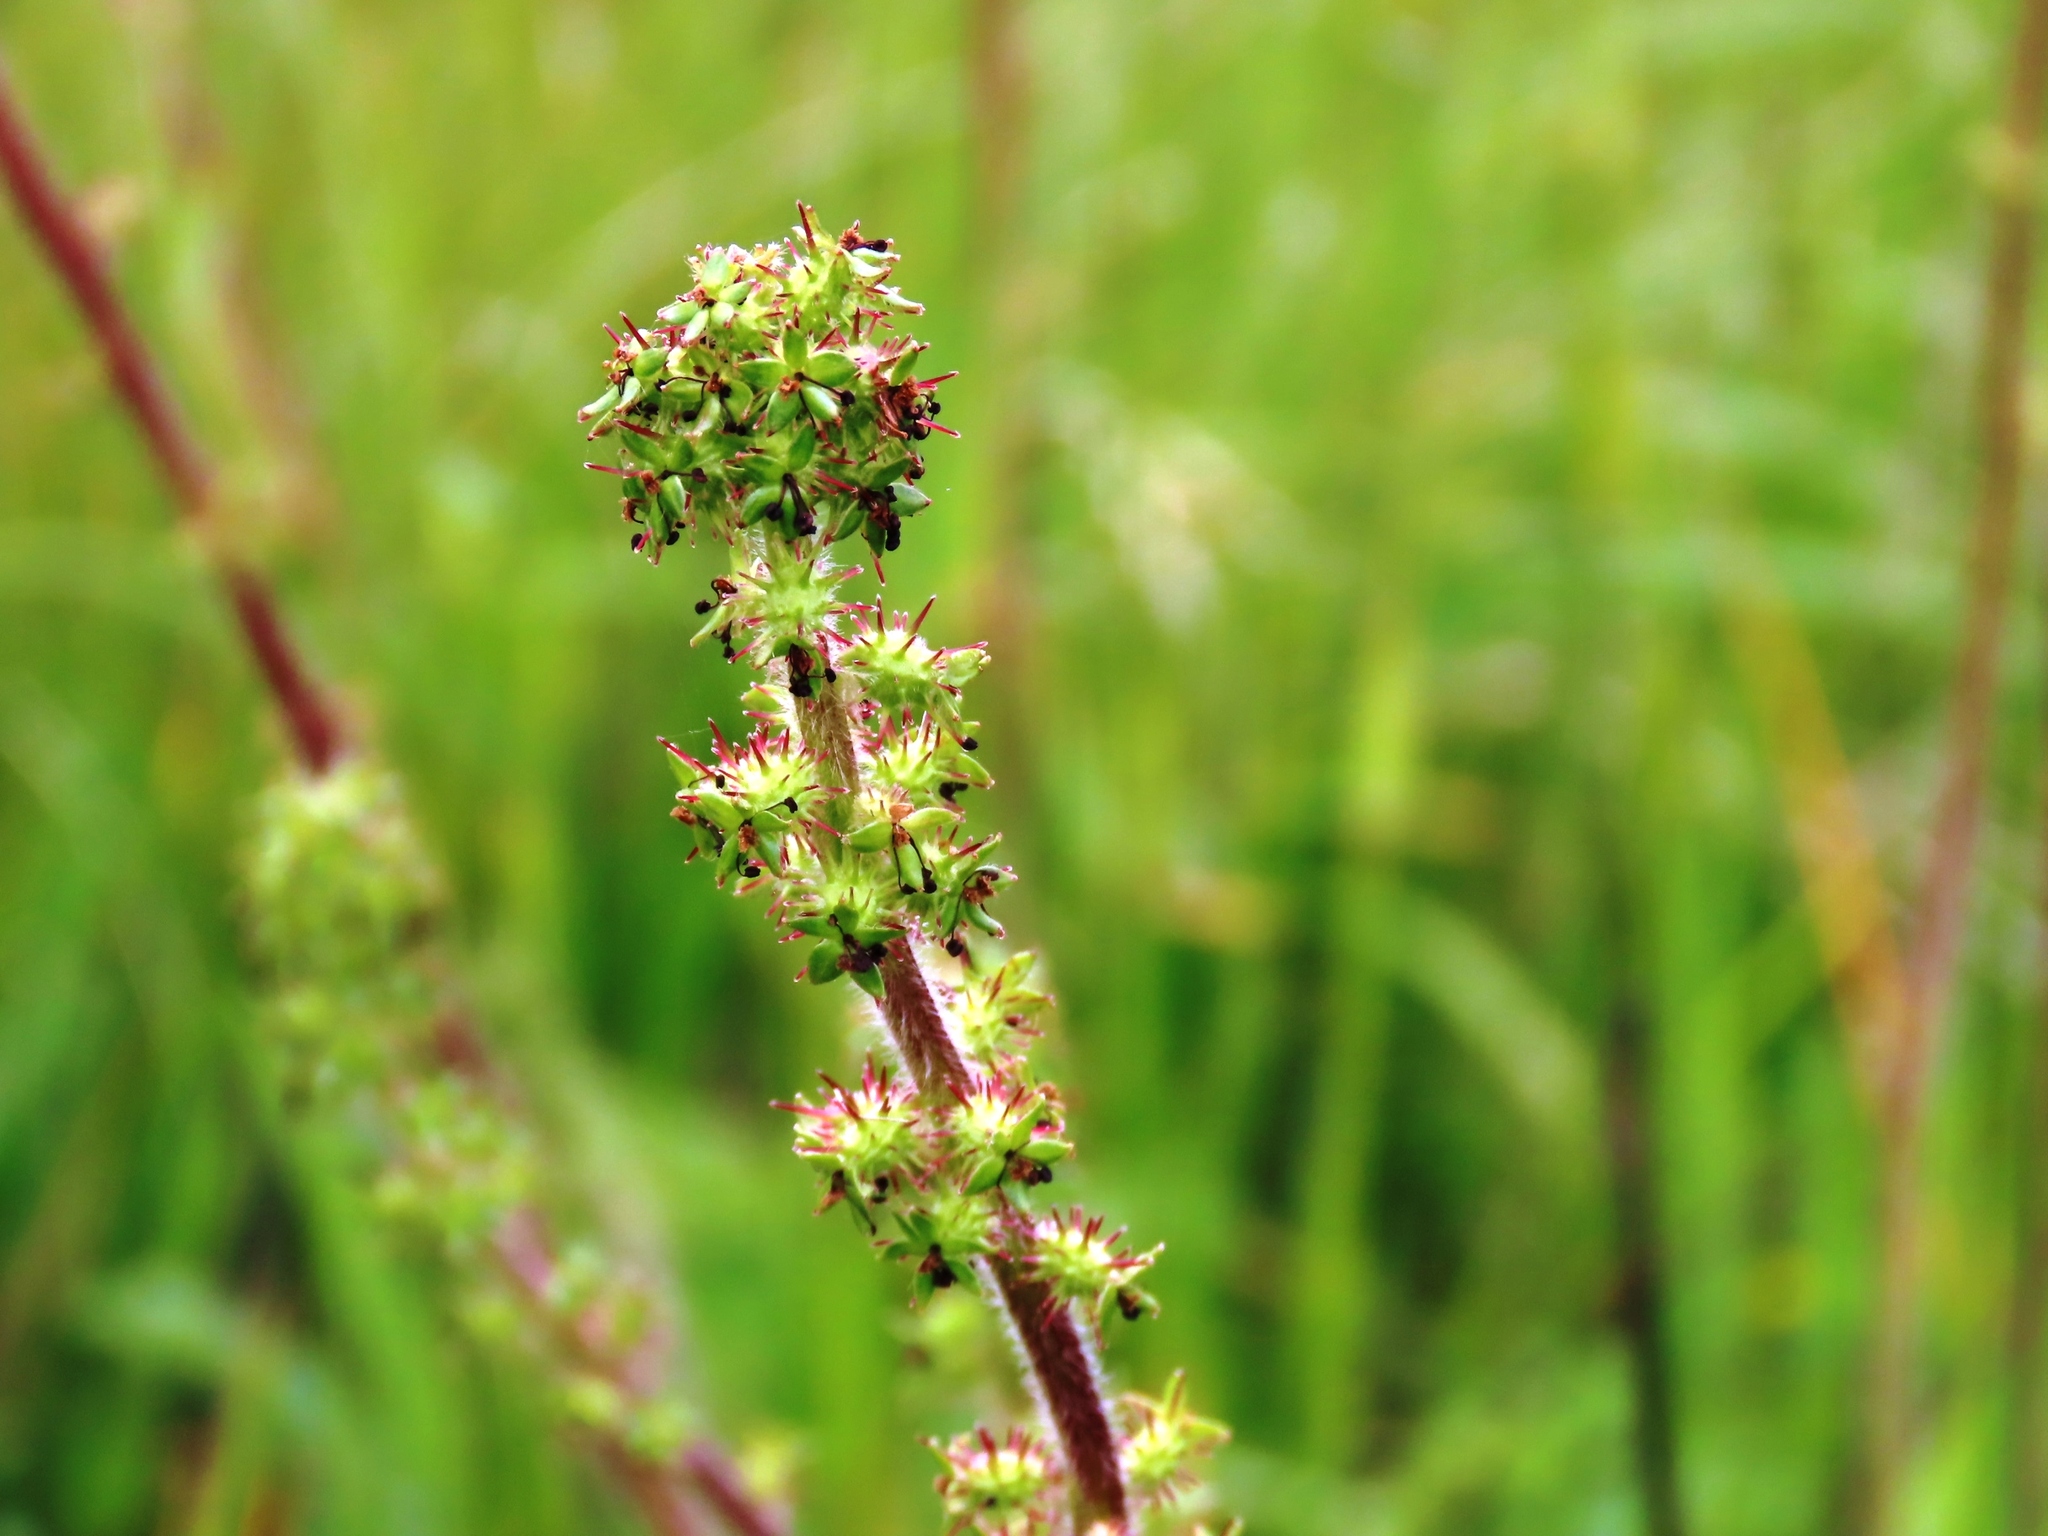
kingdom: Plantae
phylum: Tracheophyta
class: Magnoliopsida
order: Rosales
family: Rosaceae
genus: Acaena
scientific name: Acaena agnipila
